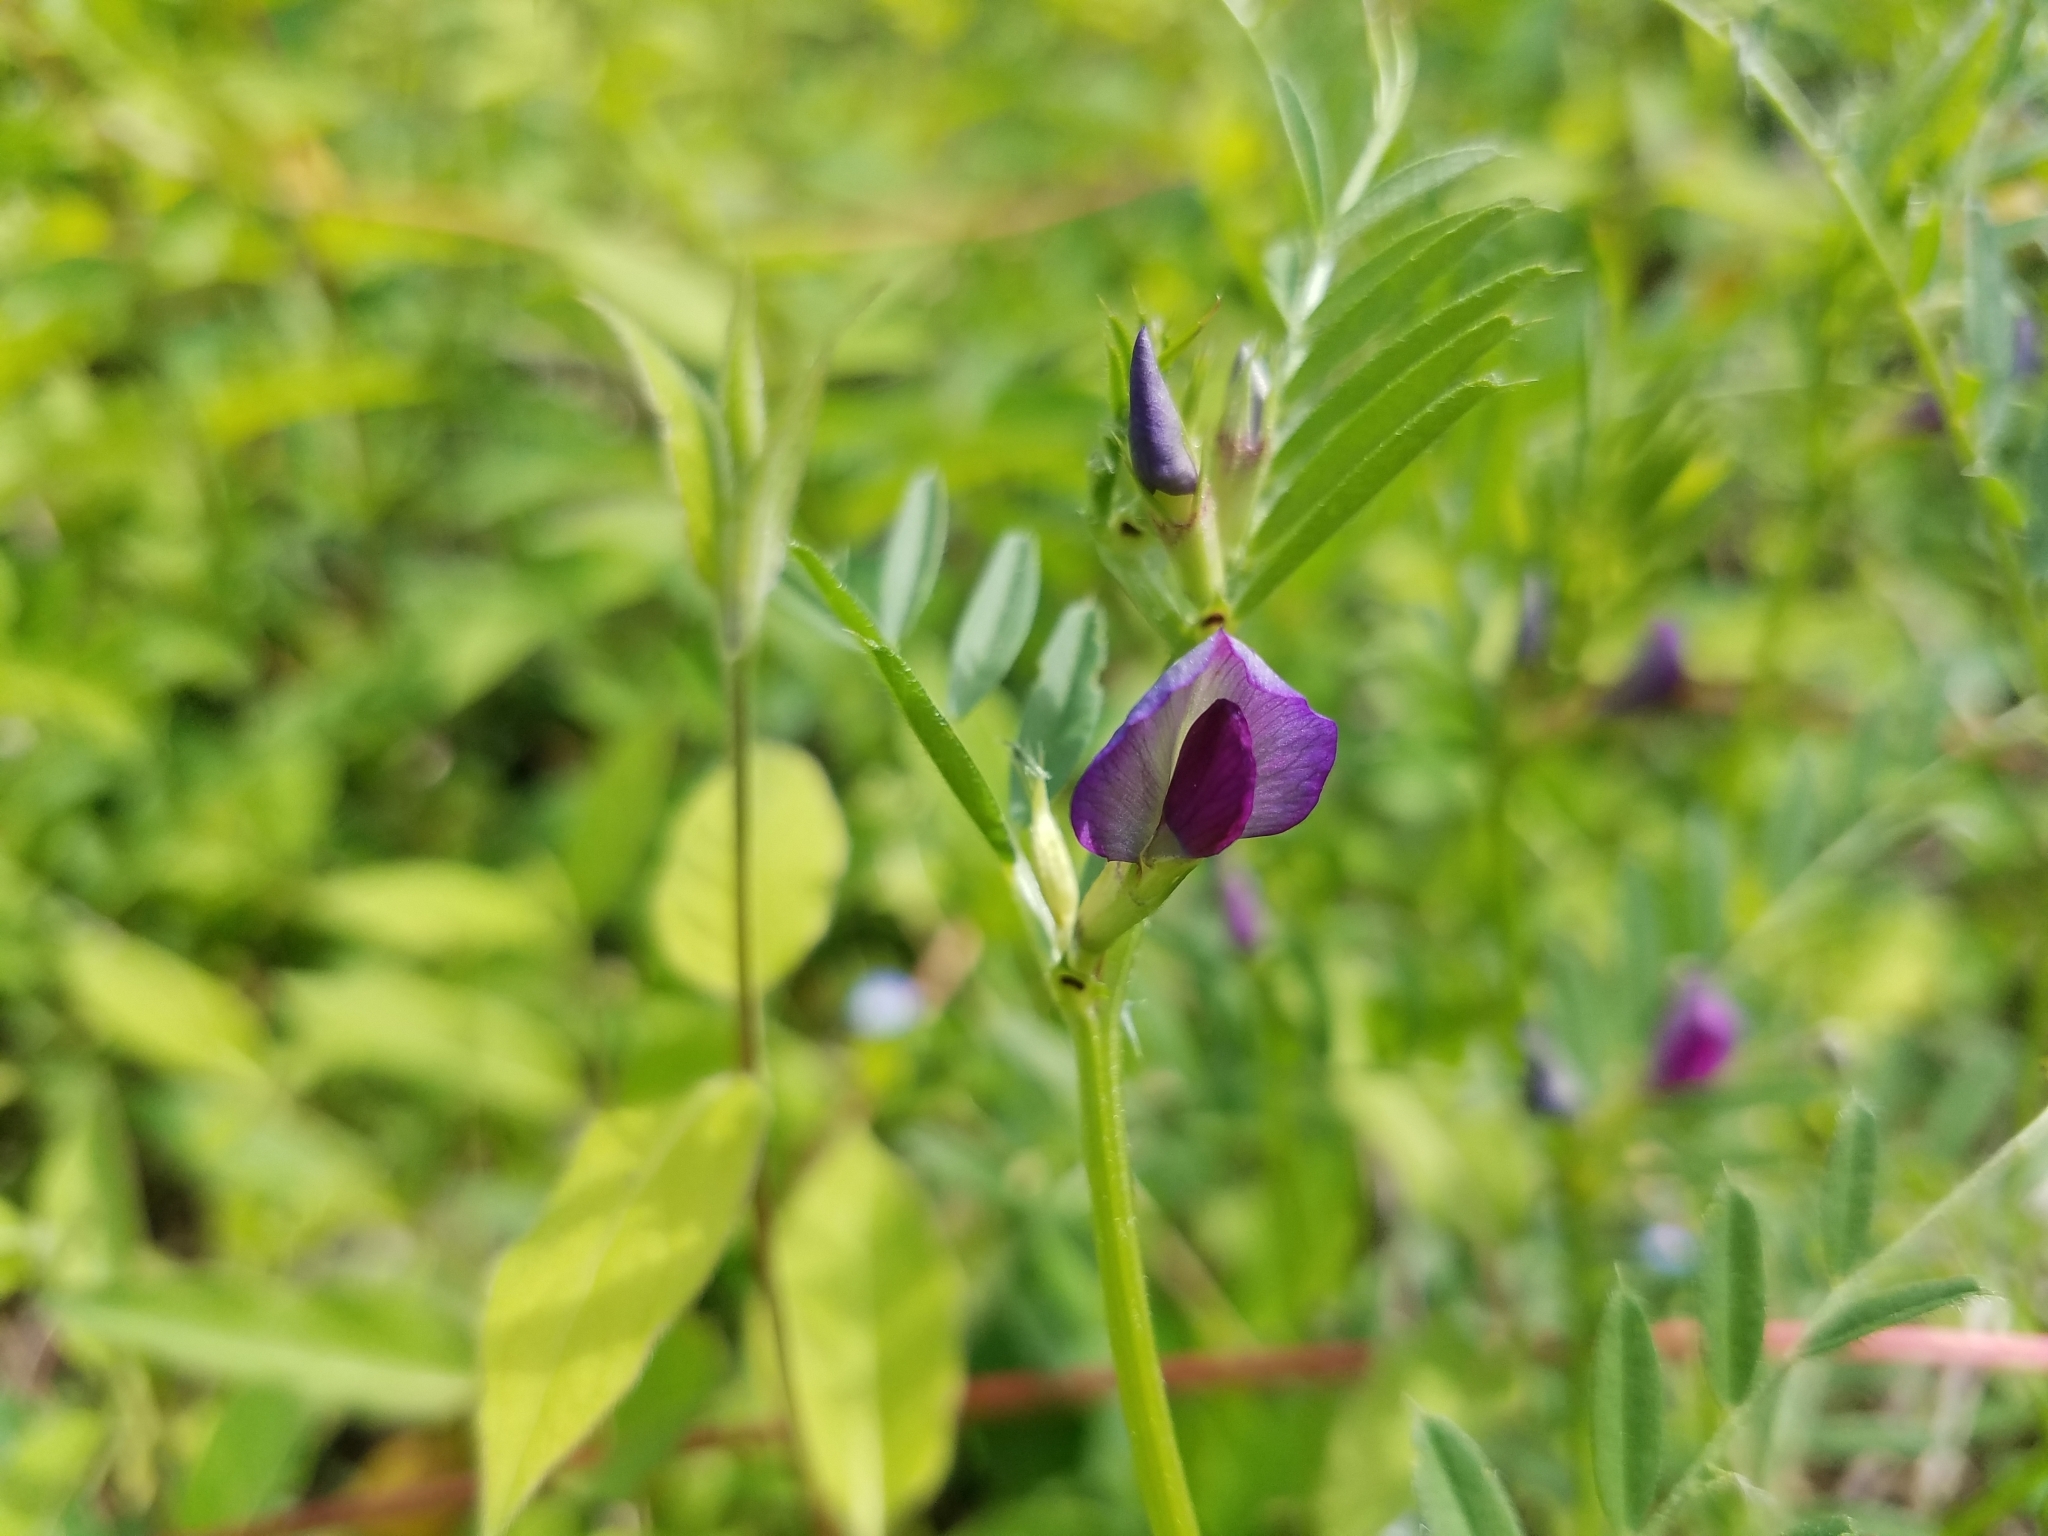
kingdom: Plantae
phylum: Tracheophyta
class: Magnoliopsida
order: Fabales
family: Fabaceae
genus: Vicia
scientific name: Vicia sativa
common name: Garden vetch
